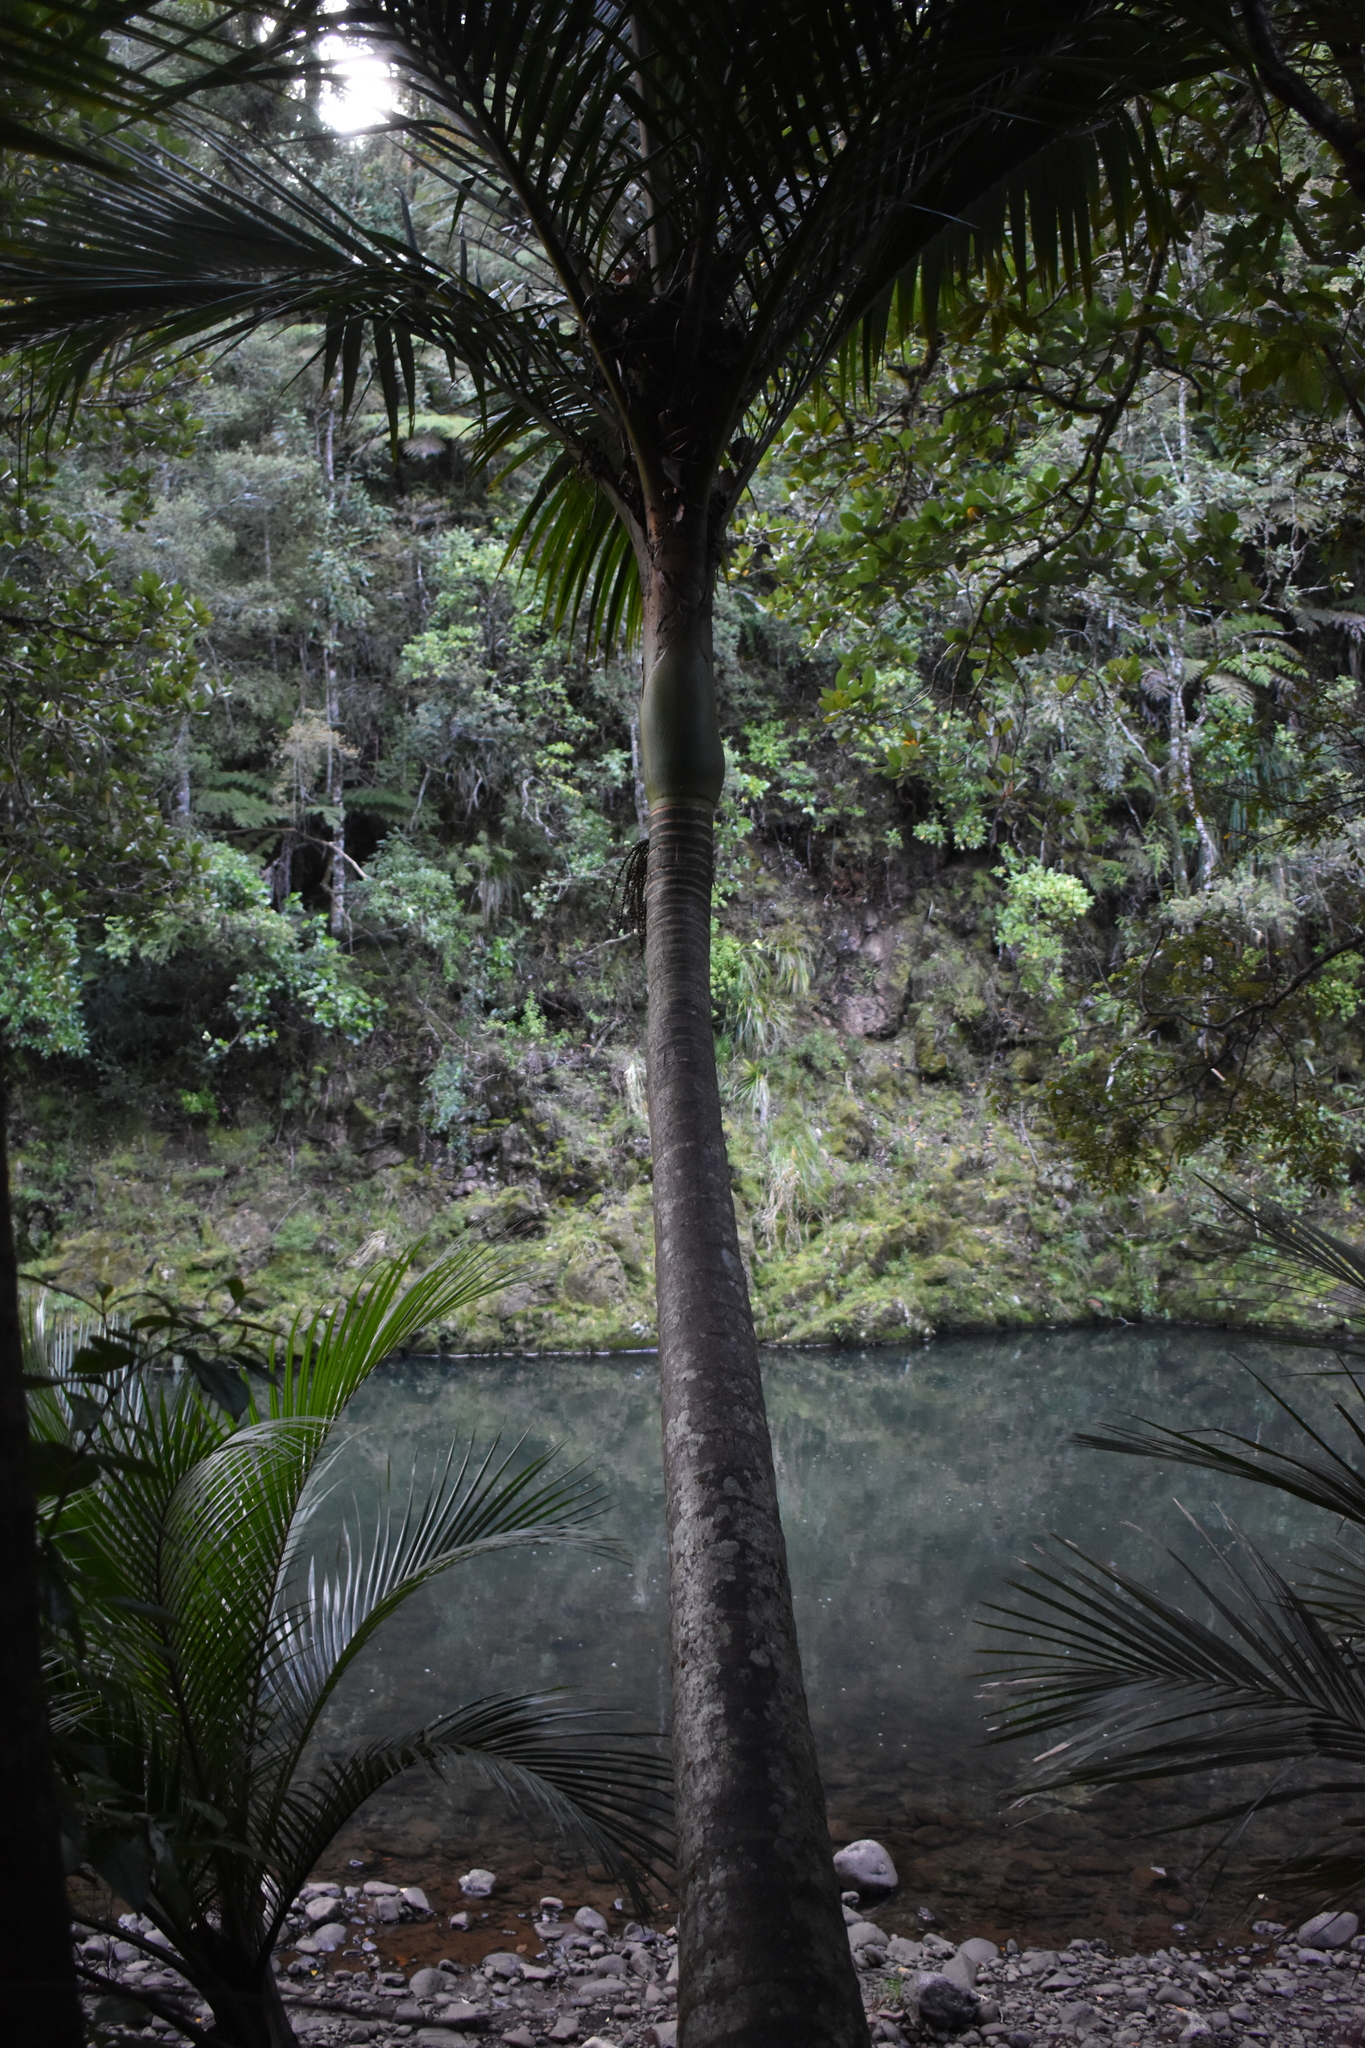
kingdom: Plantae
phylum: Tracheophyta
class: Liliopsida
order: Arecales
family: Arecaceae
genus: Rhopalostylis
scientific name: Rhopalostylis sapida
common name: Feather-duster palm
